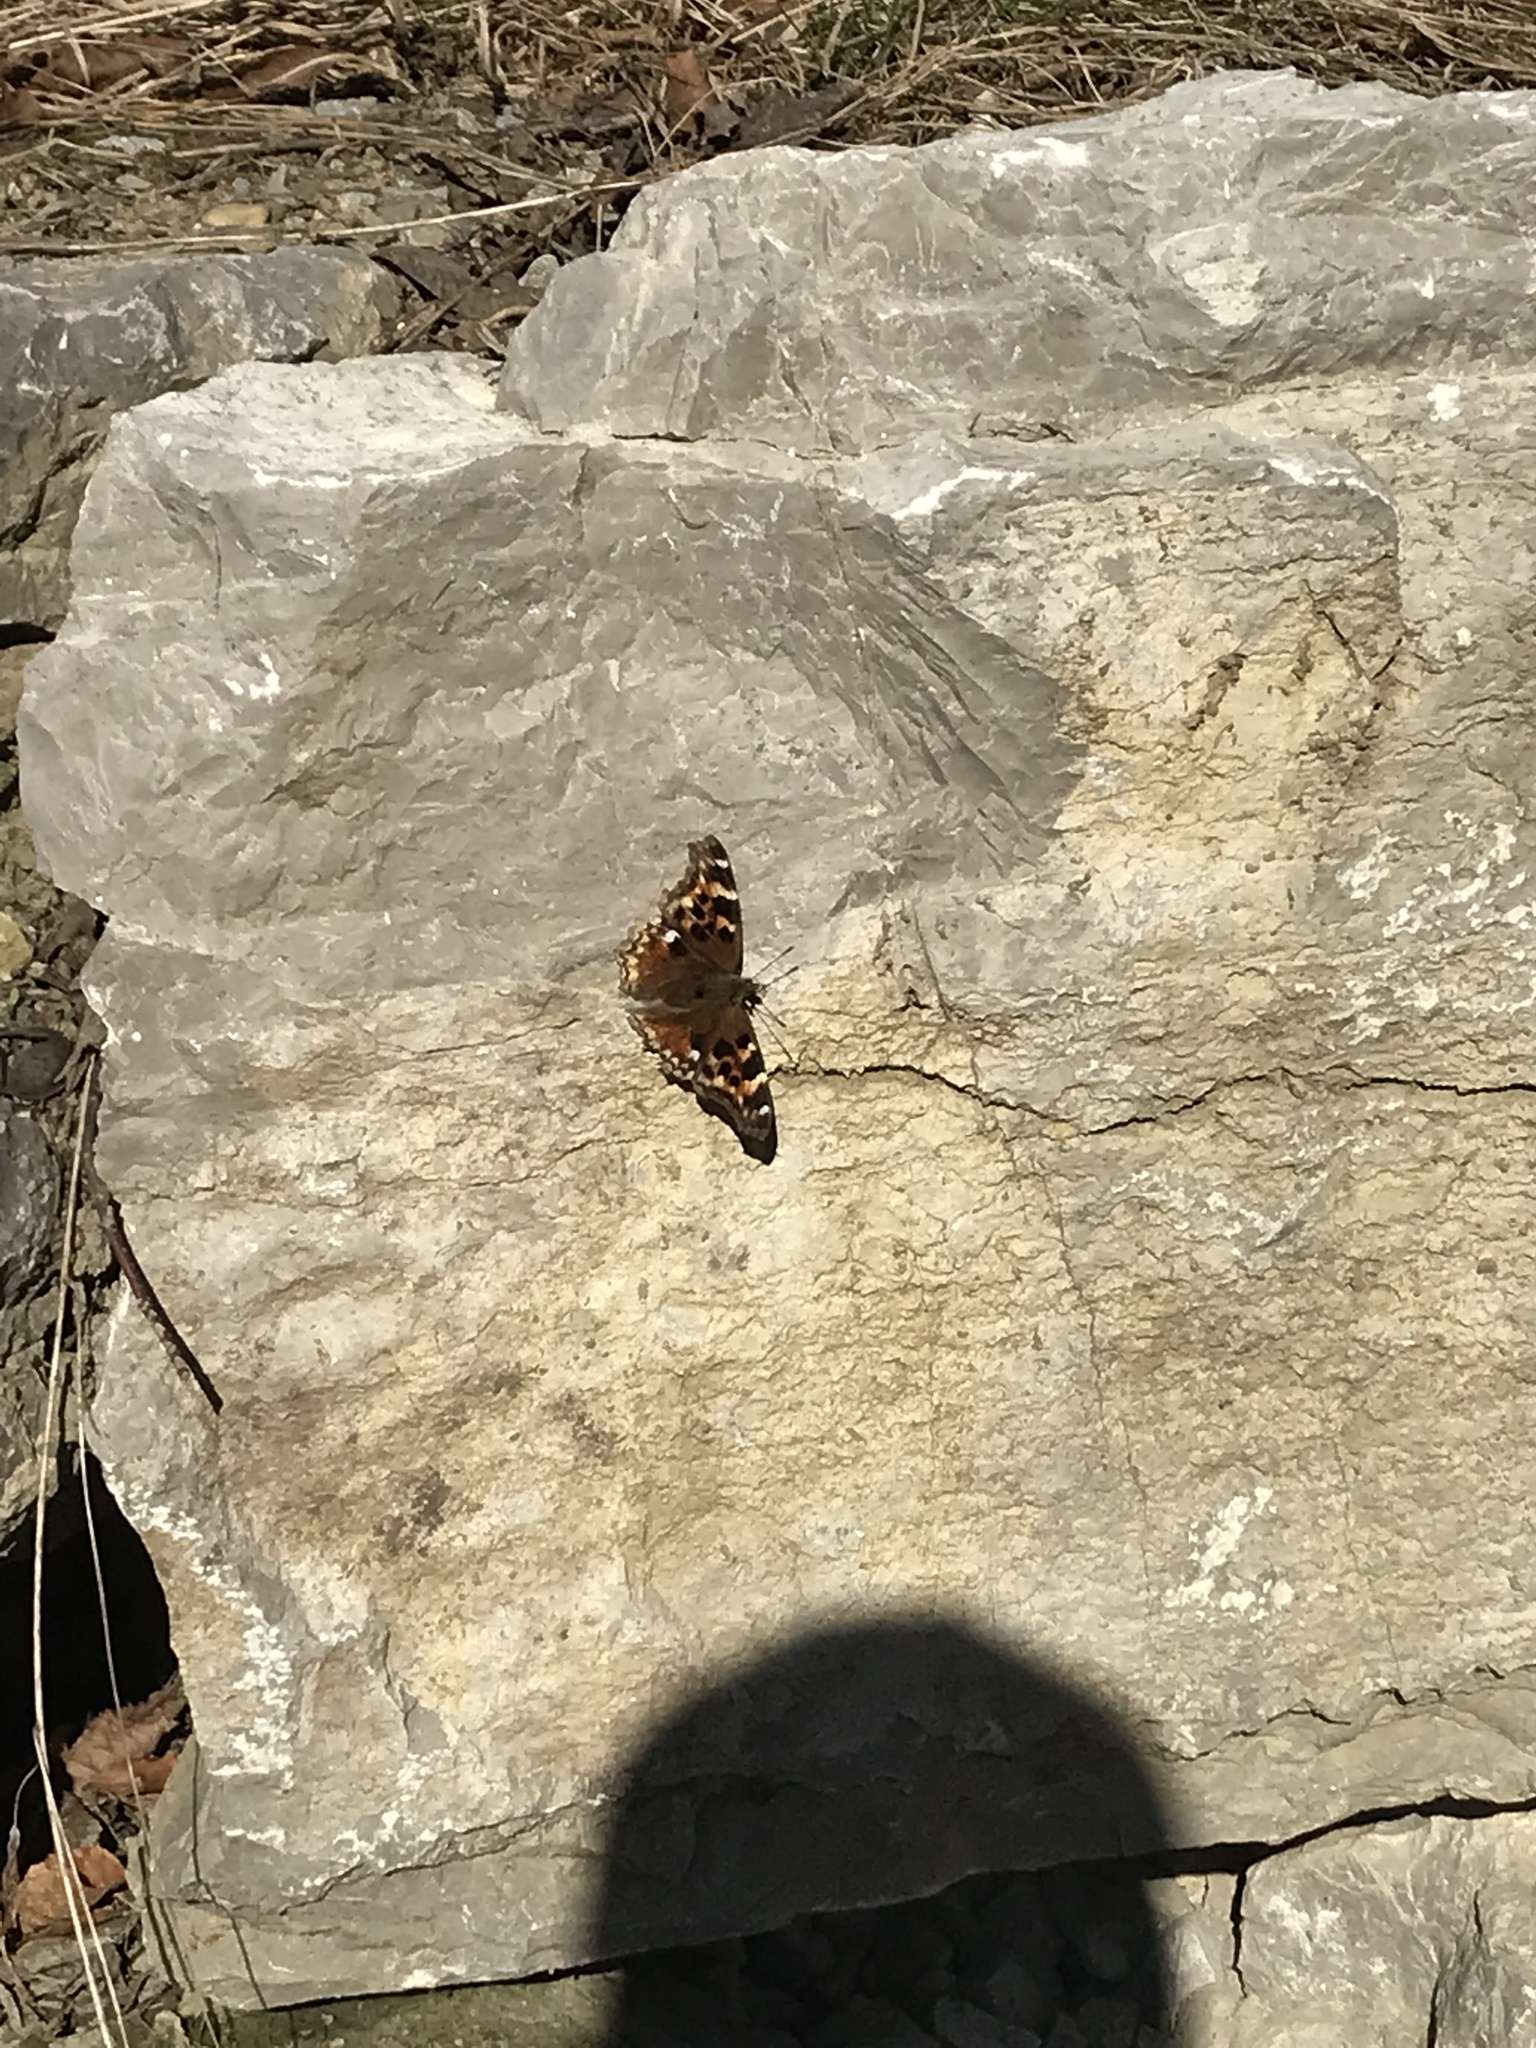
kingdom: Animalia
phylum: Arthropoda
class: Insecta
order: Lepidoptera
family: Nymphalidae
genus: Polygonia
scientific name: Polygonia vaualbum
